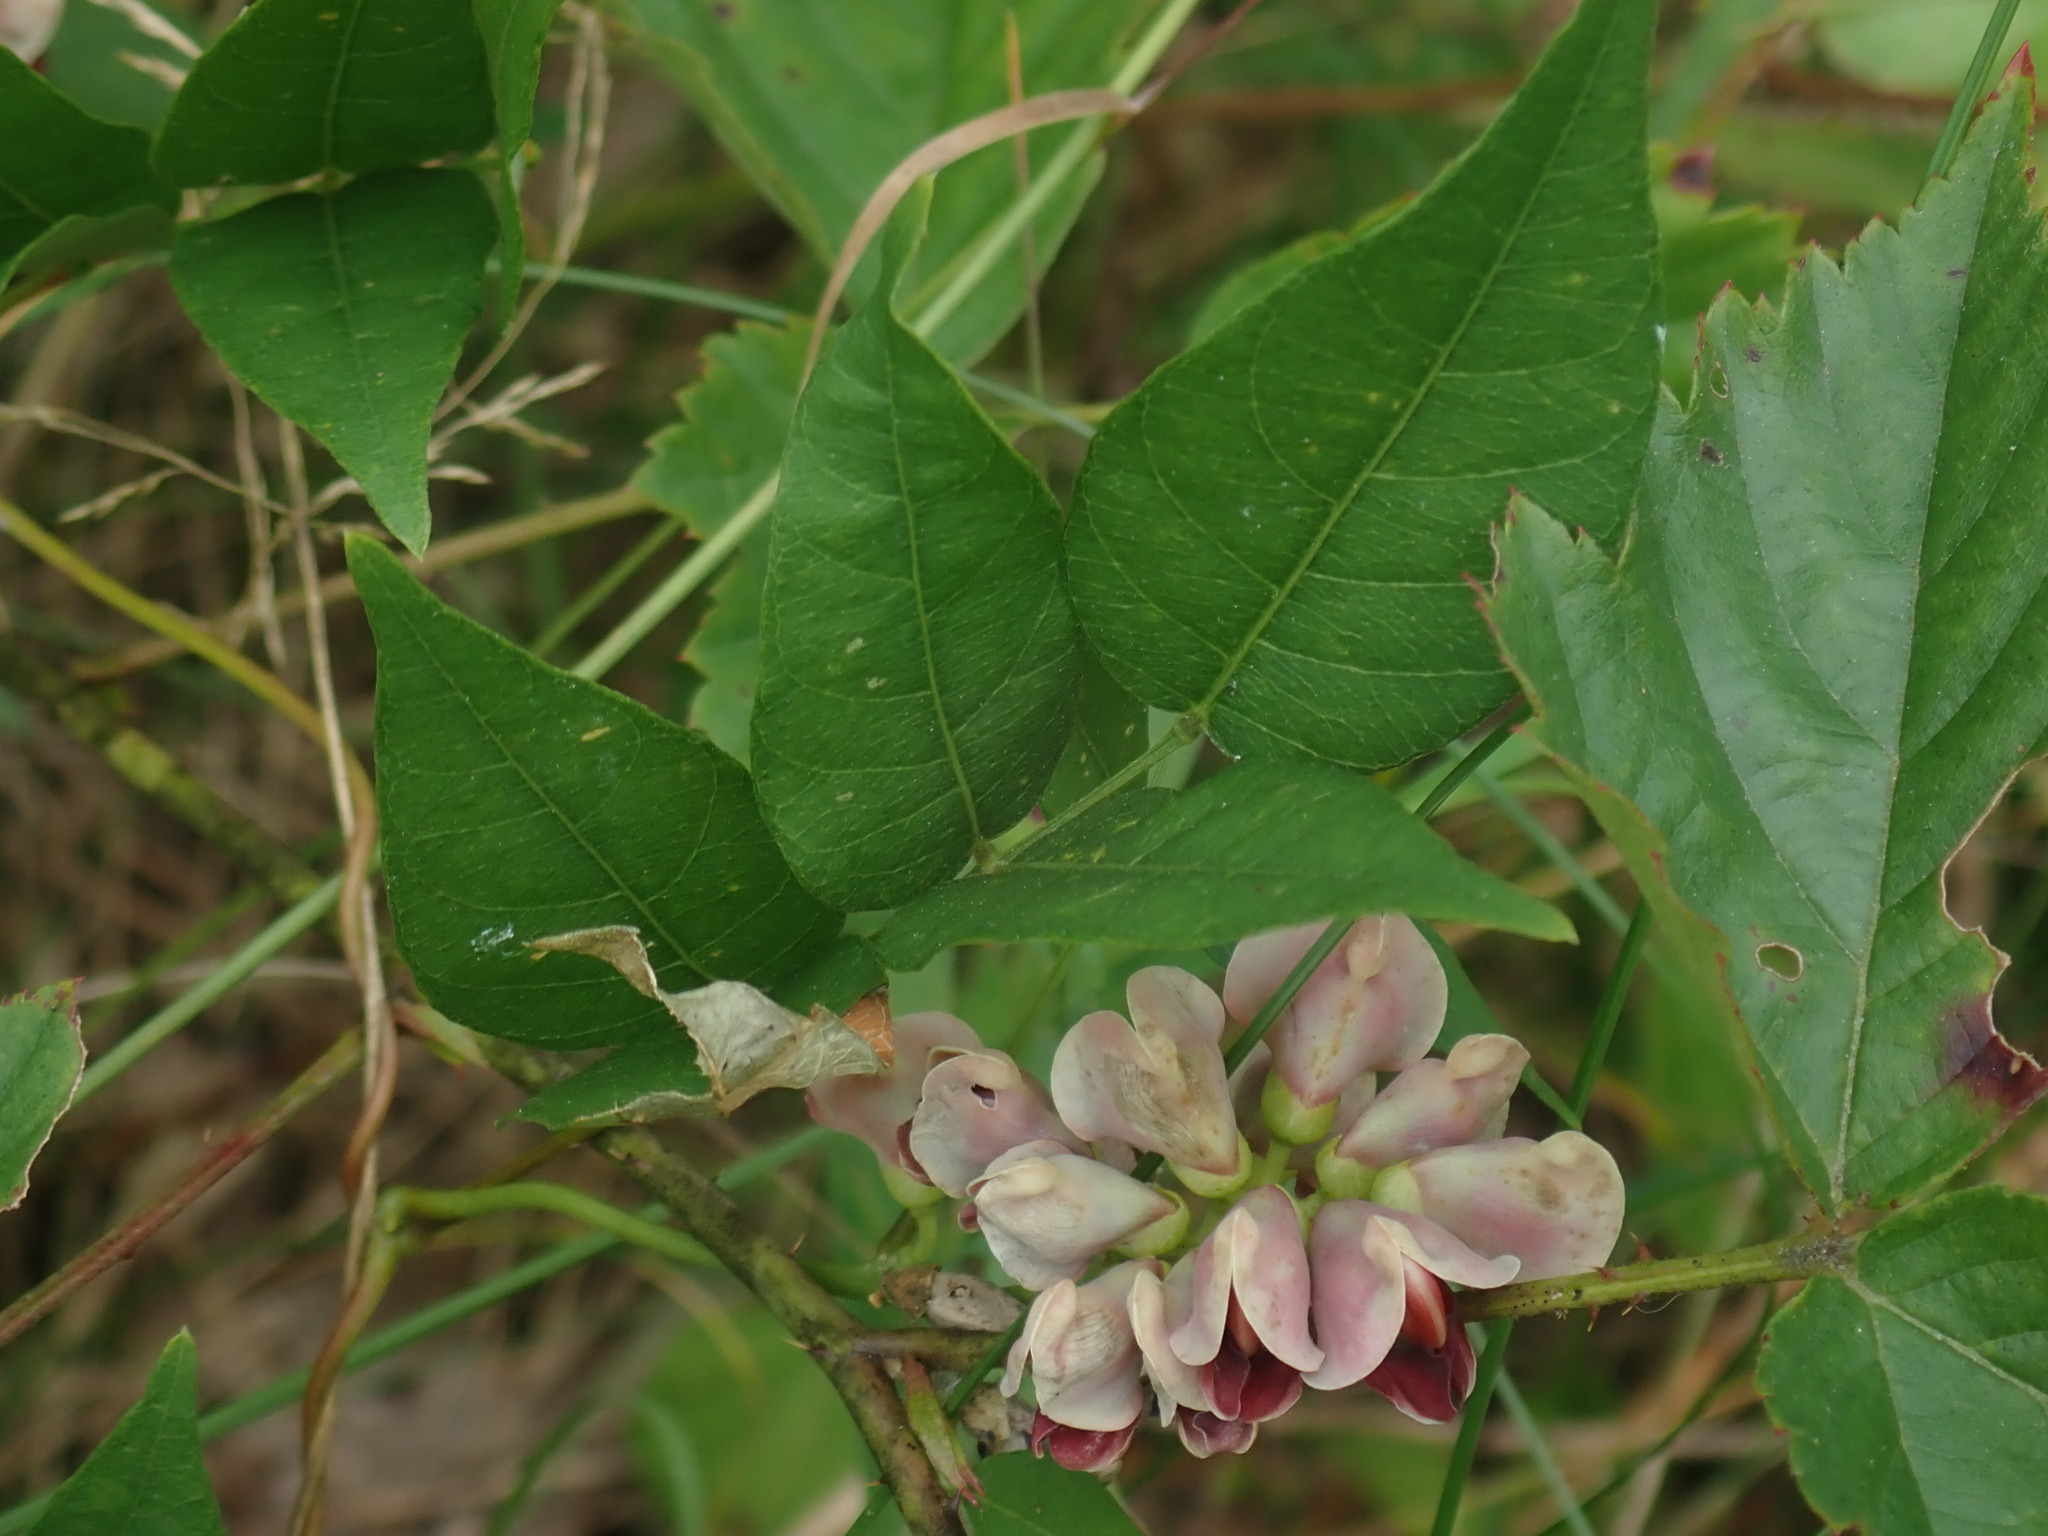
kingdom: Plantae
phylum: Tracheophyta
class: Magnoliopsida
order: Fabales
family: Fabaceae
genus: Apios
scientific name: Apios americana
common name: American potato-bean
